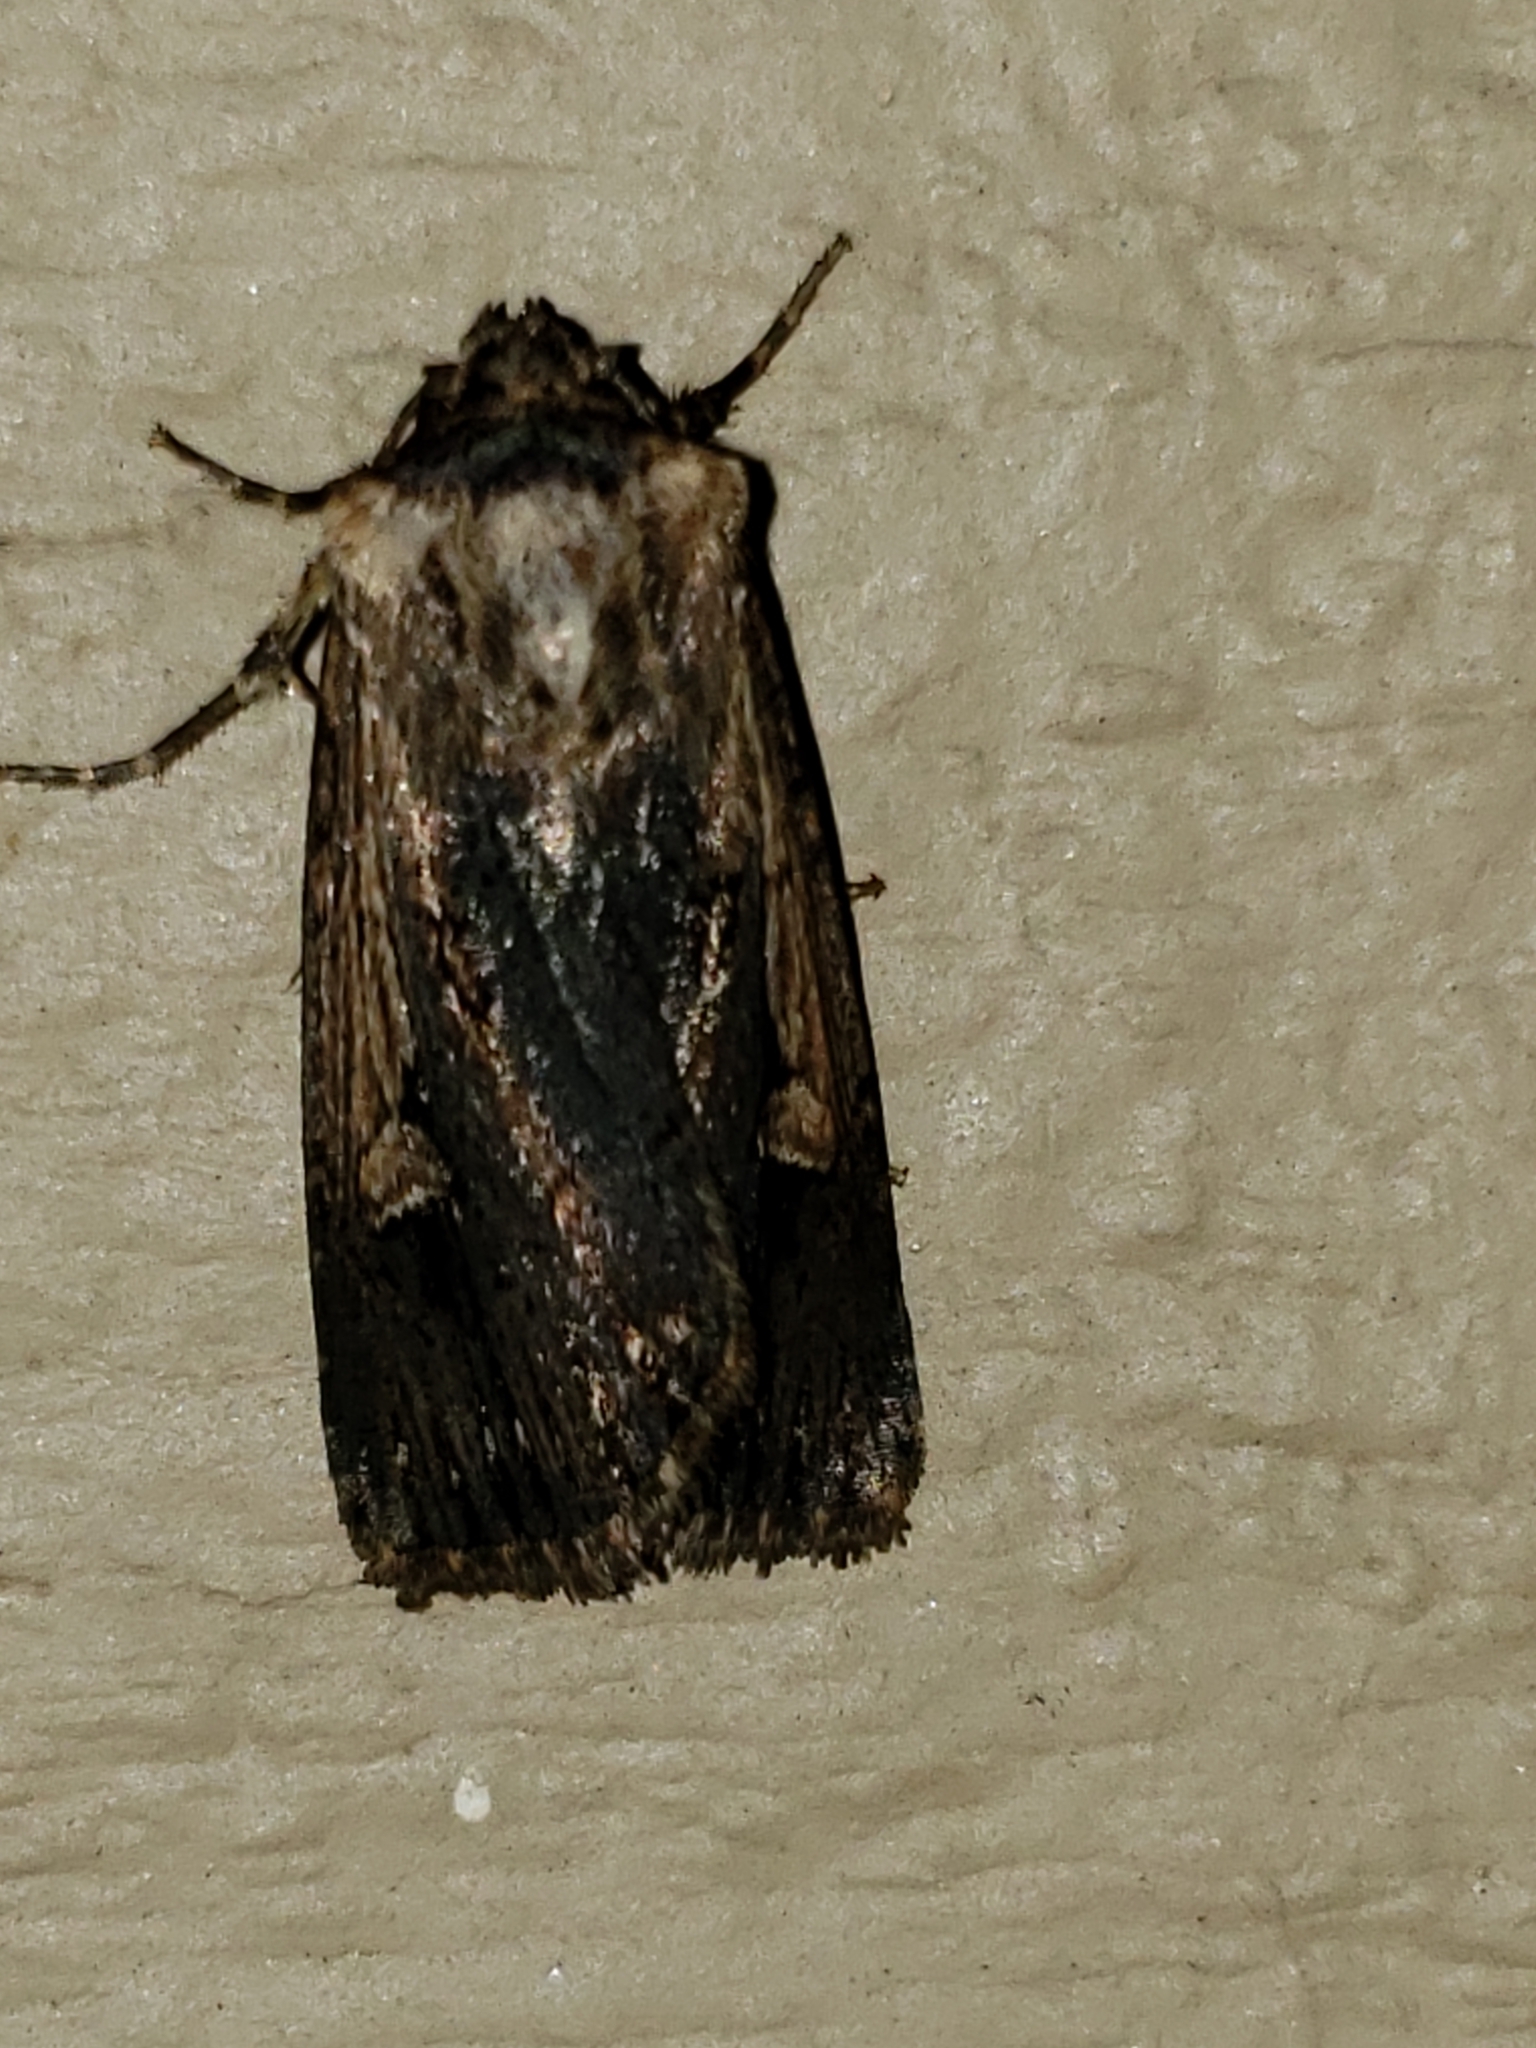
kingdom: Animalia
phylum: Arthropoda
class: Insecta
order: Lepidoptera
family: Noctuidae
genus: Dichagyris
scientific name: Dichagyris acclivis
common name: Inclined dart
